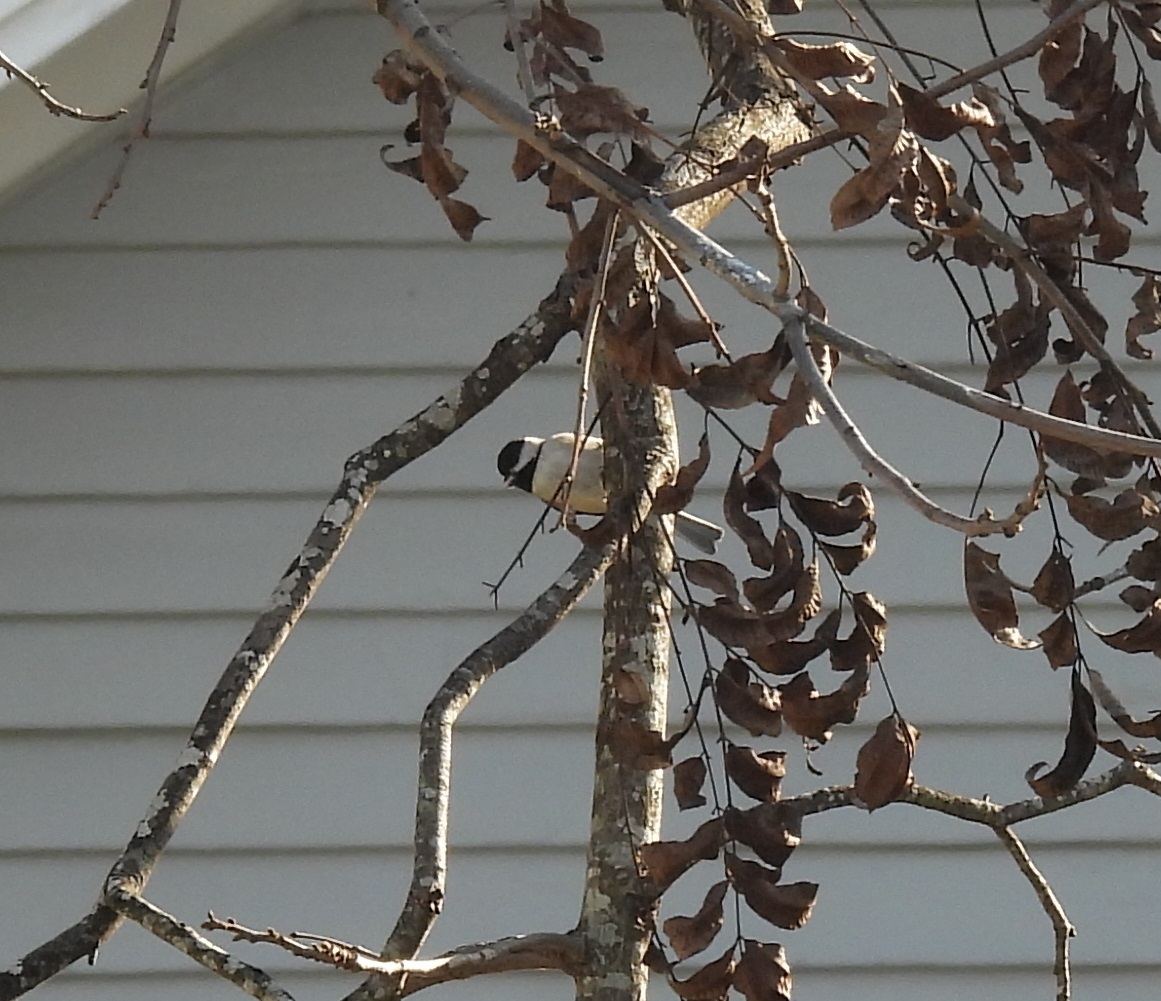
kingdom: Animalia
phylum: Chordata
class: Aves
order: Passeriformes
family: Paridae
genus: Poecile
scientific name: Poecile carolinensis
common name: Carolina chickadee
